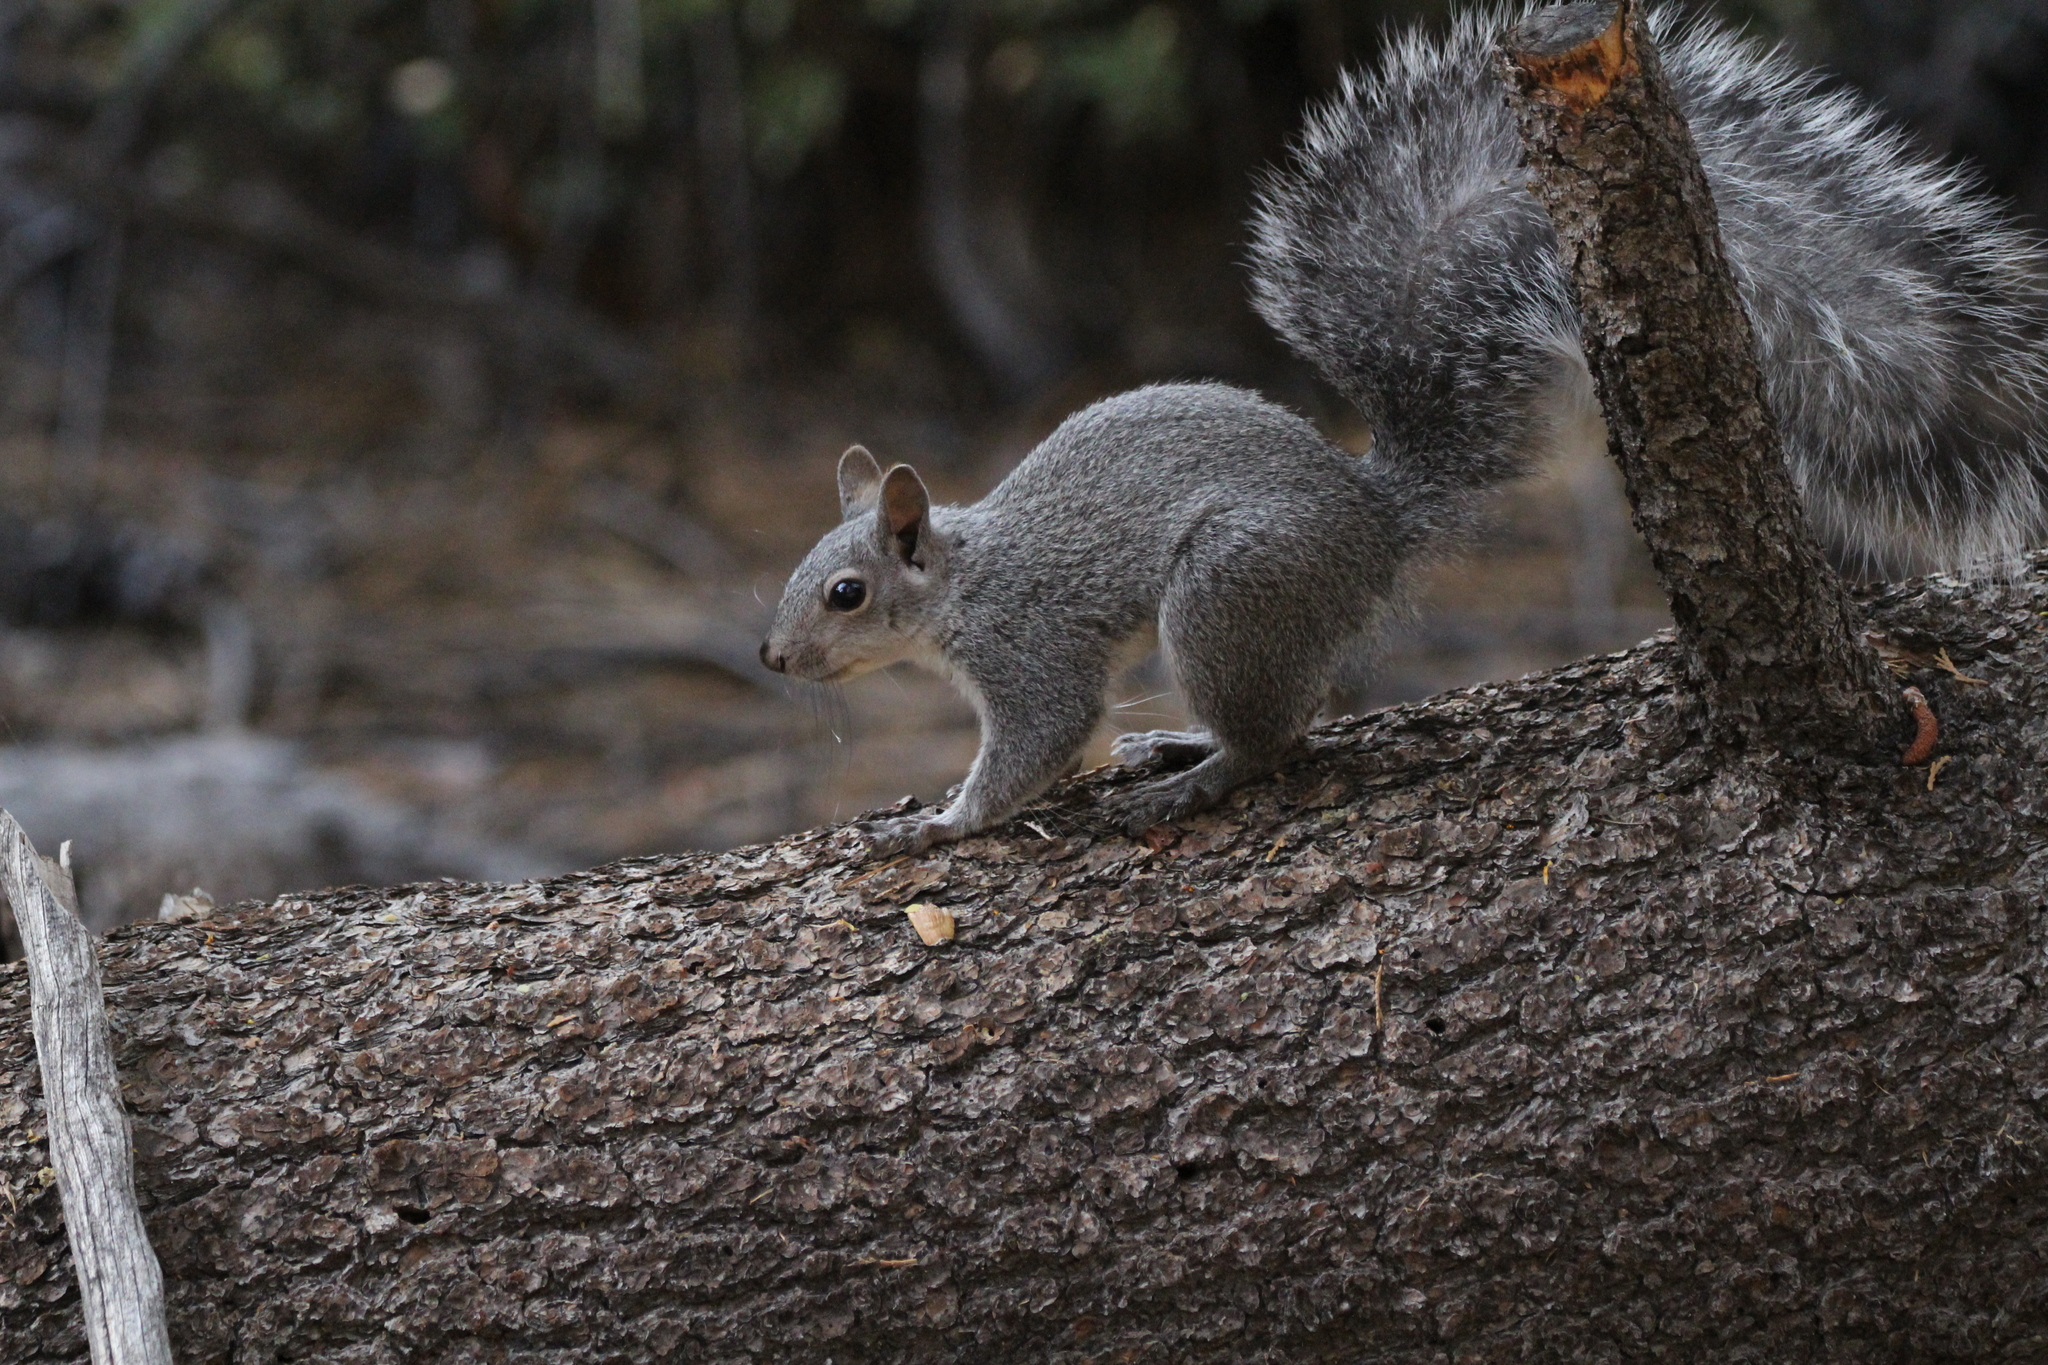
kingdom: Animalia
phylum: Chordata
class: Mammalia
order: Rodentia
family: Sciuridae
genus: Sciurus
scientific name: Sciurus griseus
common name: Western gray squirrel
